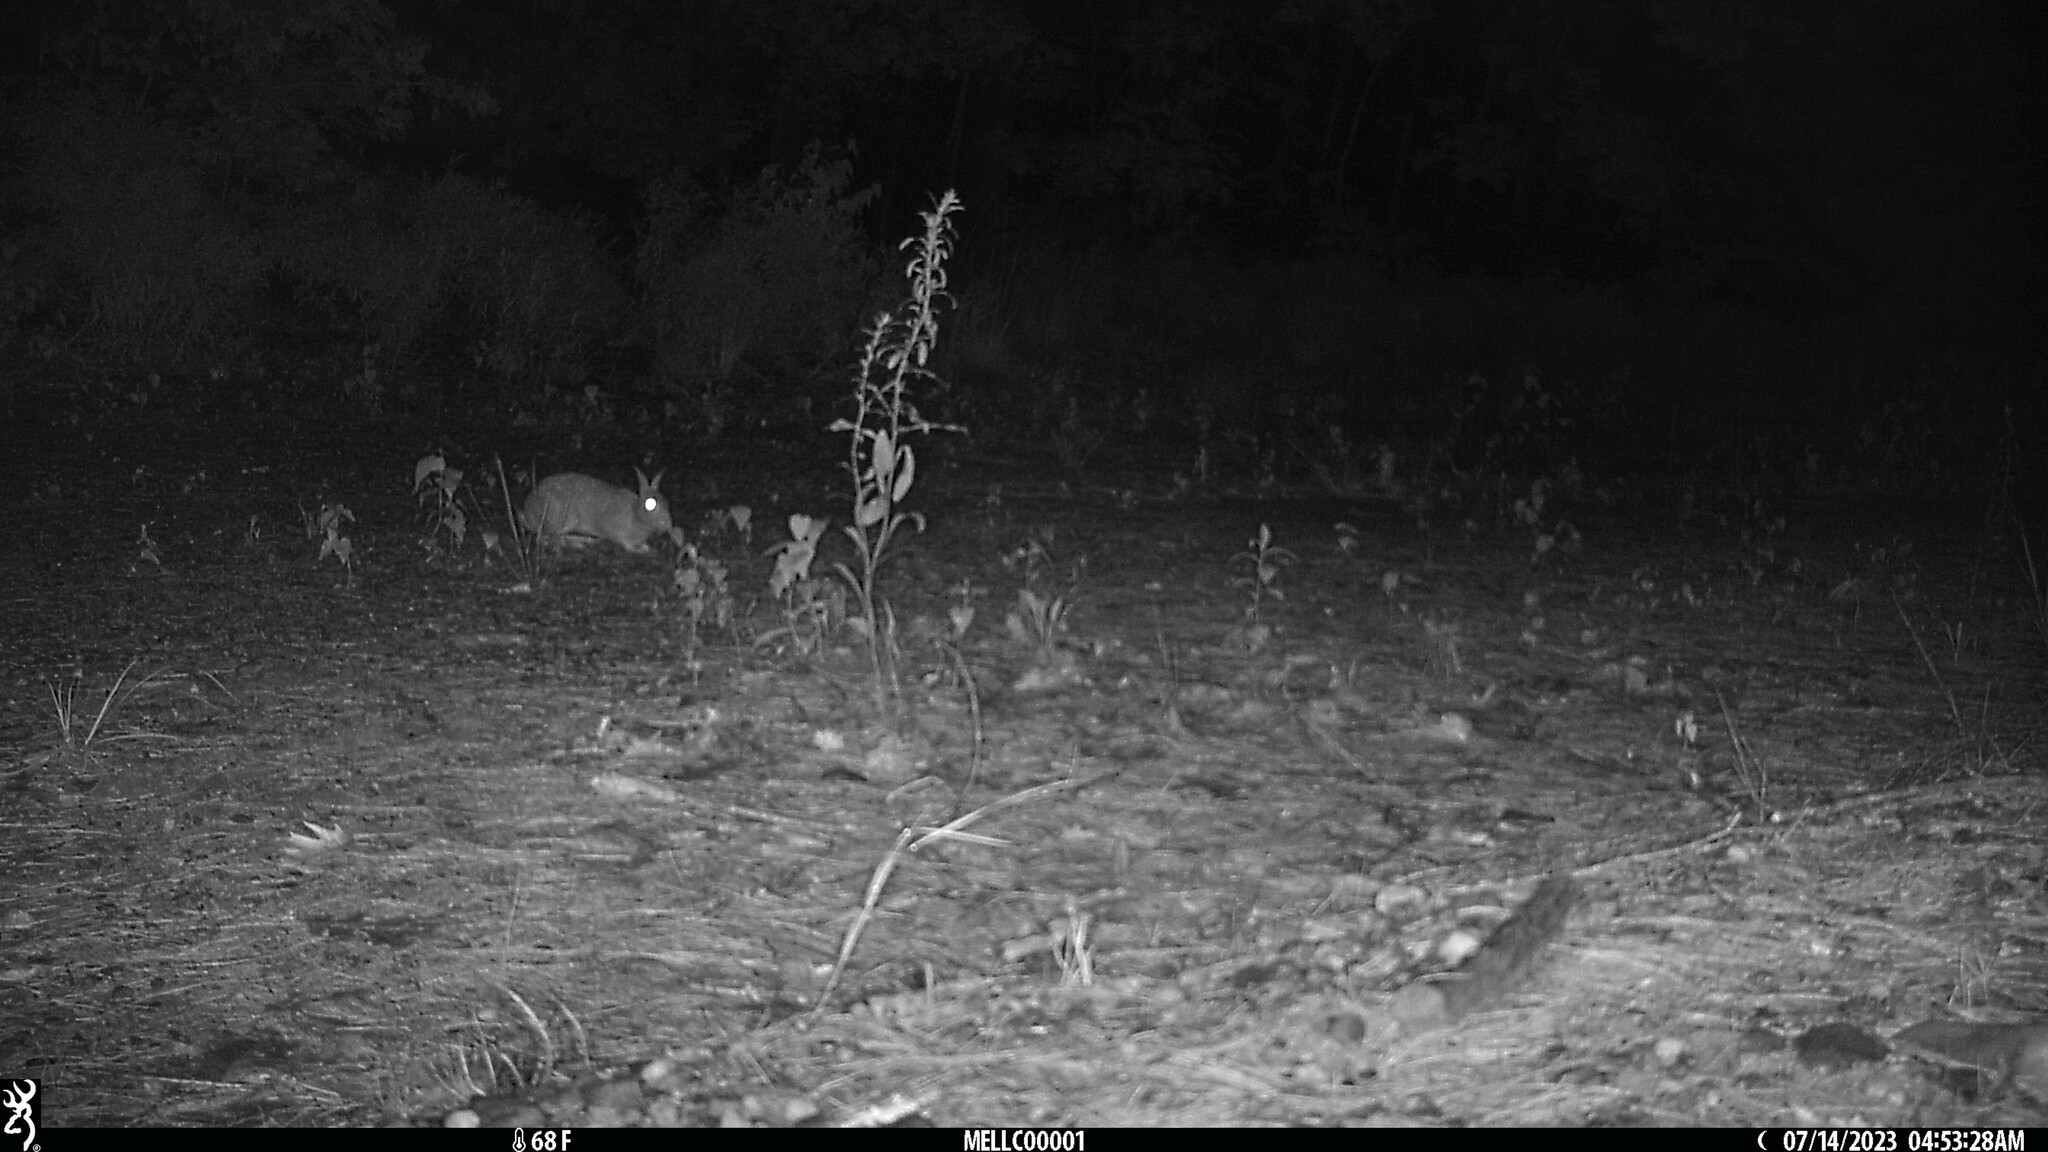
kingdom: Animalia
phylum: Chordata
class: Mammalia
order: Lagomorpha
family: Leporidae
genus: Sylvilagus
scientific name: Sylvilagus floridanus
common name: Eastern cottontail
